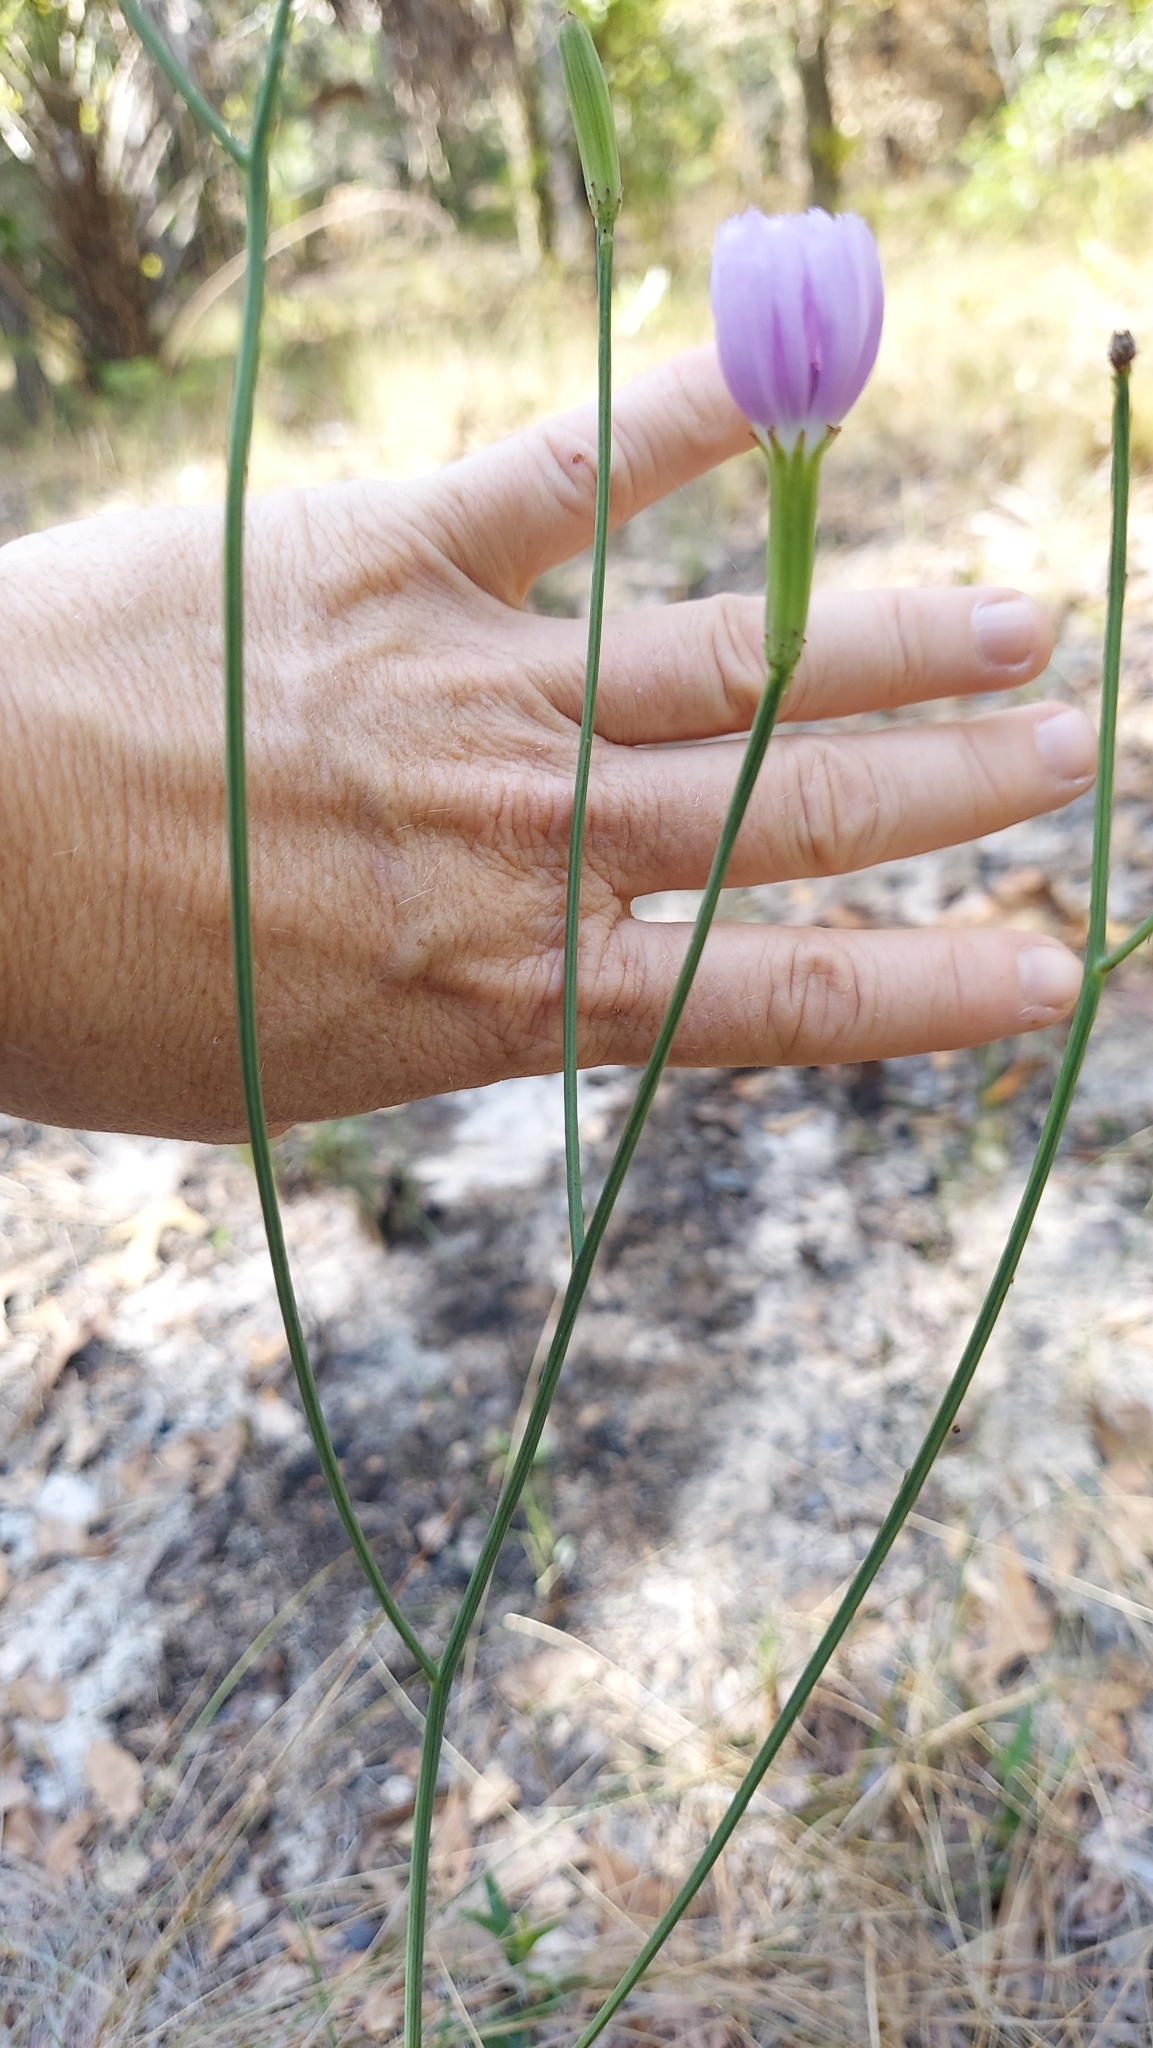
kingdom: Plantae
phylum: Tracheophyta
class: Magnoliopsida
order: Asterales
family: Asteraceae
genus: Lygodesmia
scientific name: Lygodesmia aphylla
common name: Rose-rush
